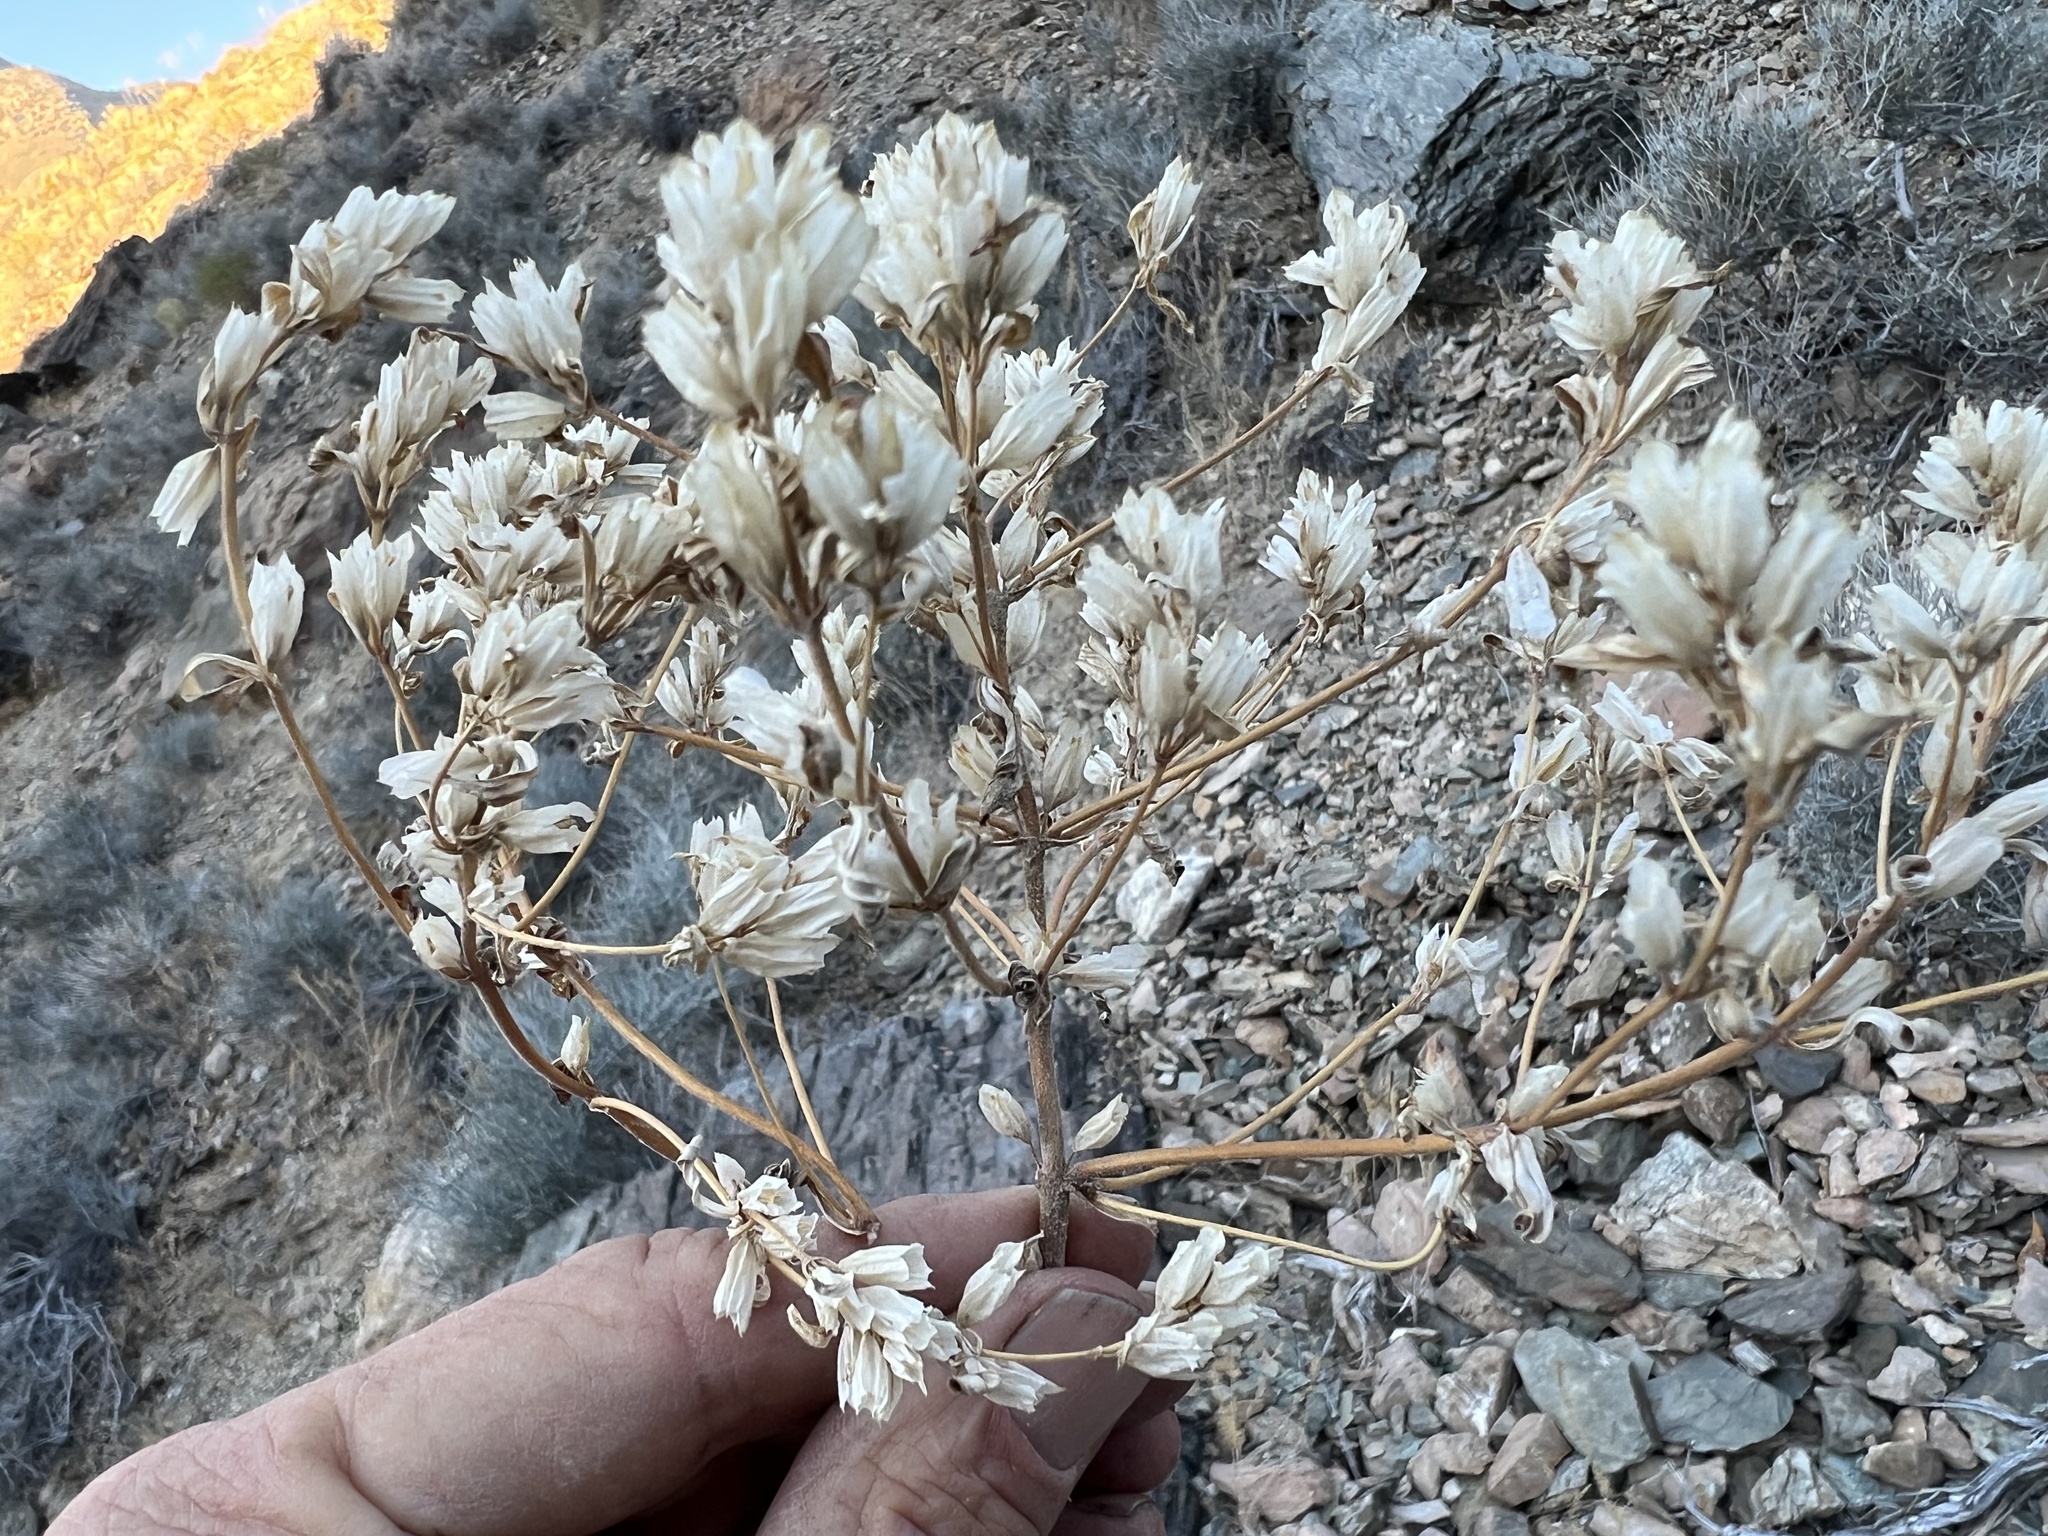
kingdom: Plantae
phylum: Tracheophyta
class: Magnoliopsida
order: Lamiales
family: Phrymaceae
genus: Diplacus
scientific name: Diplacus parryi
